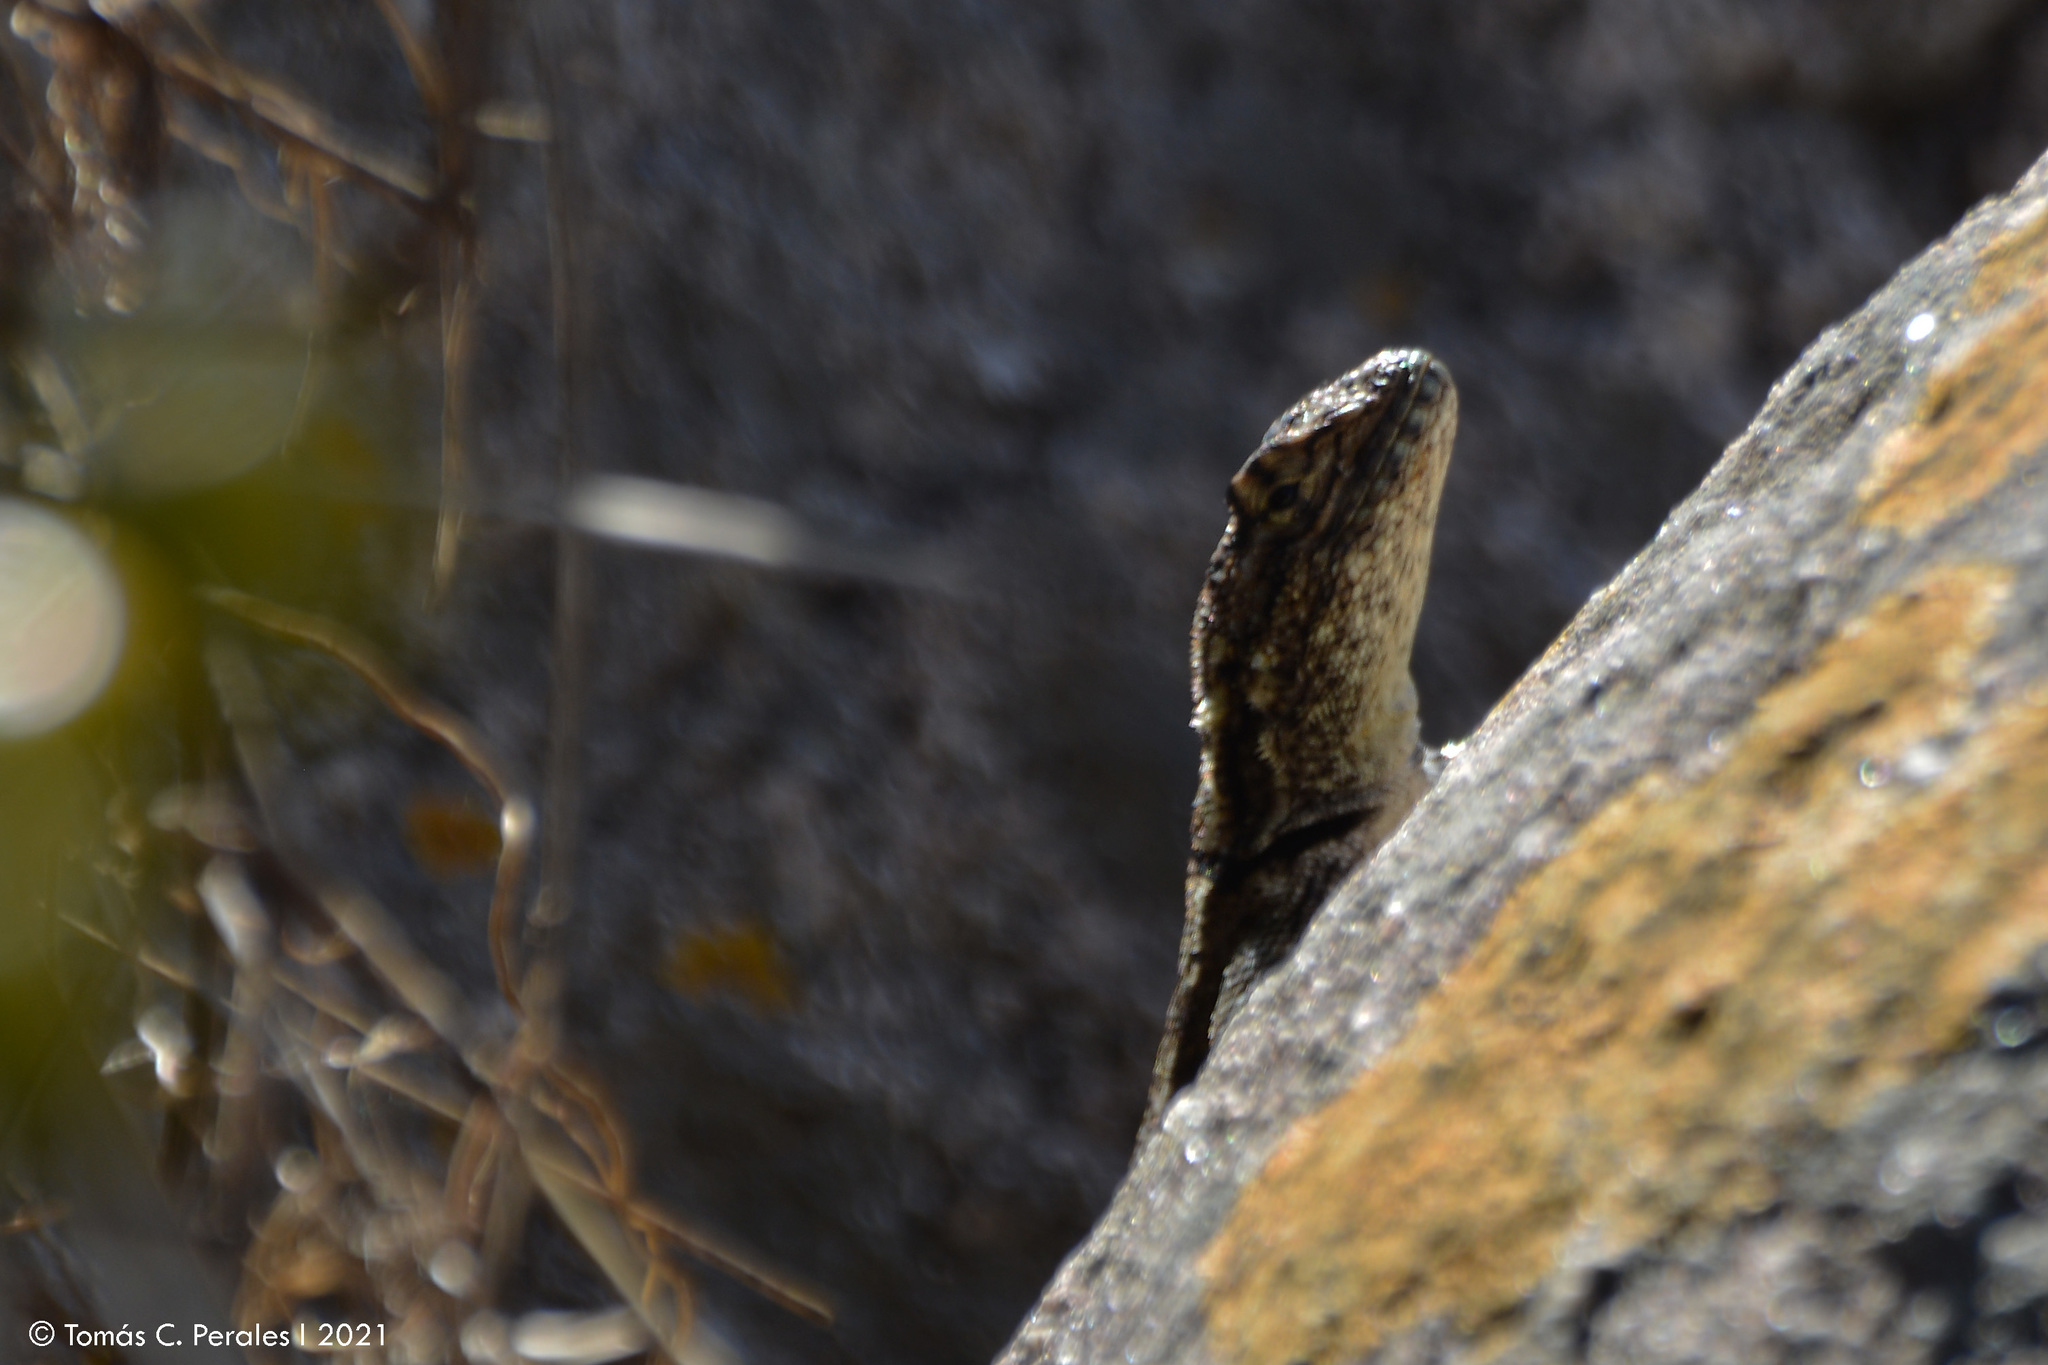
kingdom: Animalia
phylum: Chordata
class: Squamata
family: Tropiduridae
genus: Tropidurus
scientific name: Tropidurus spinulosus
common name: Spiny lava lizard
